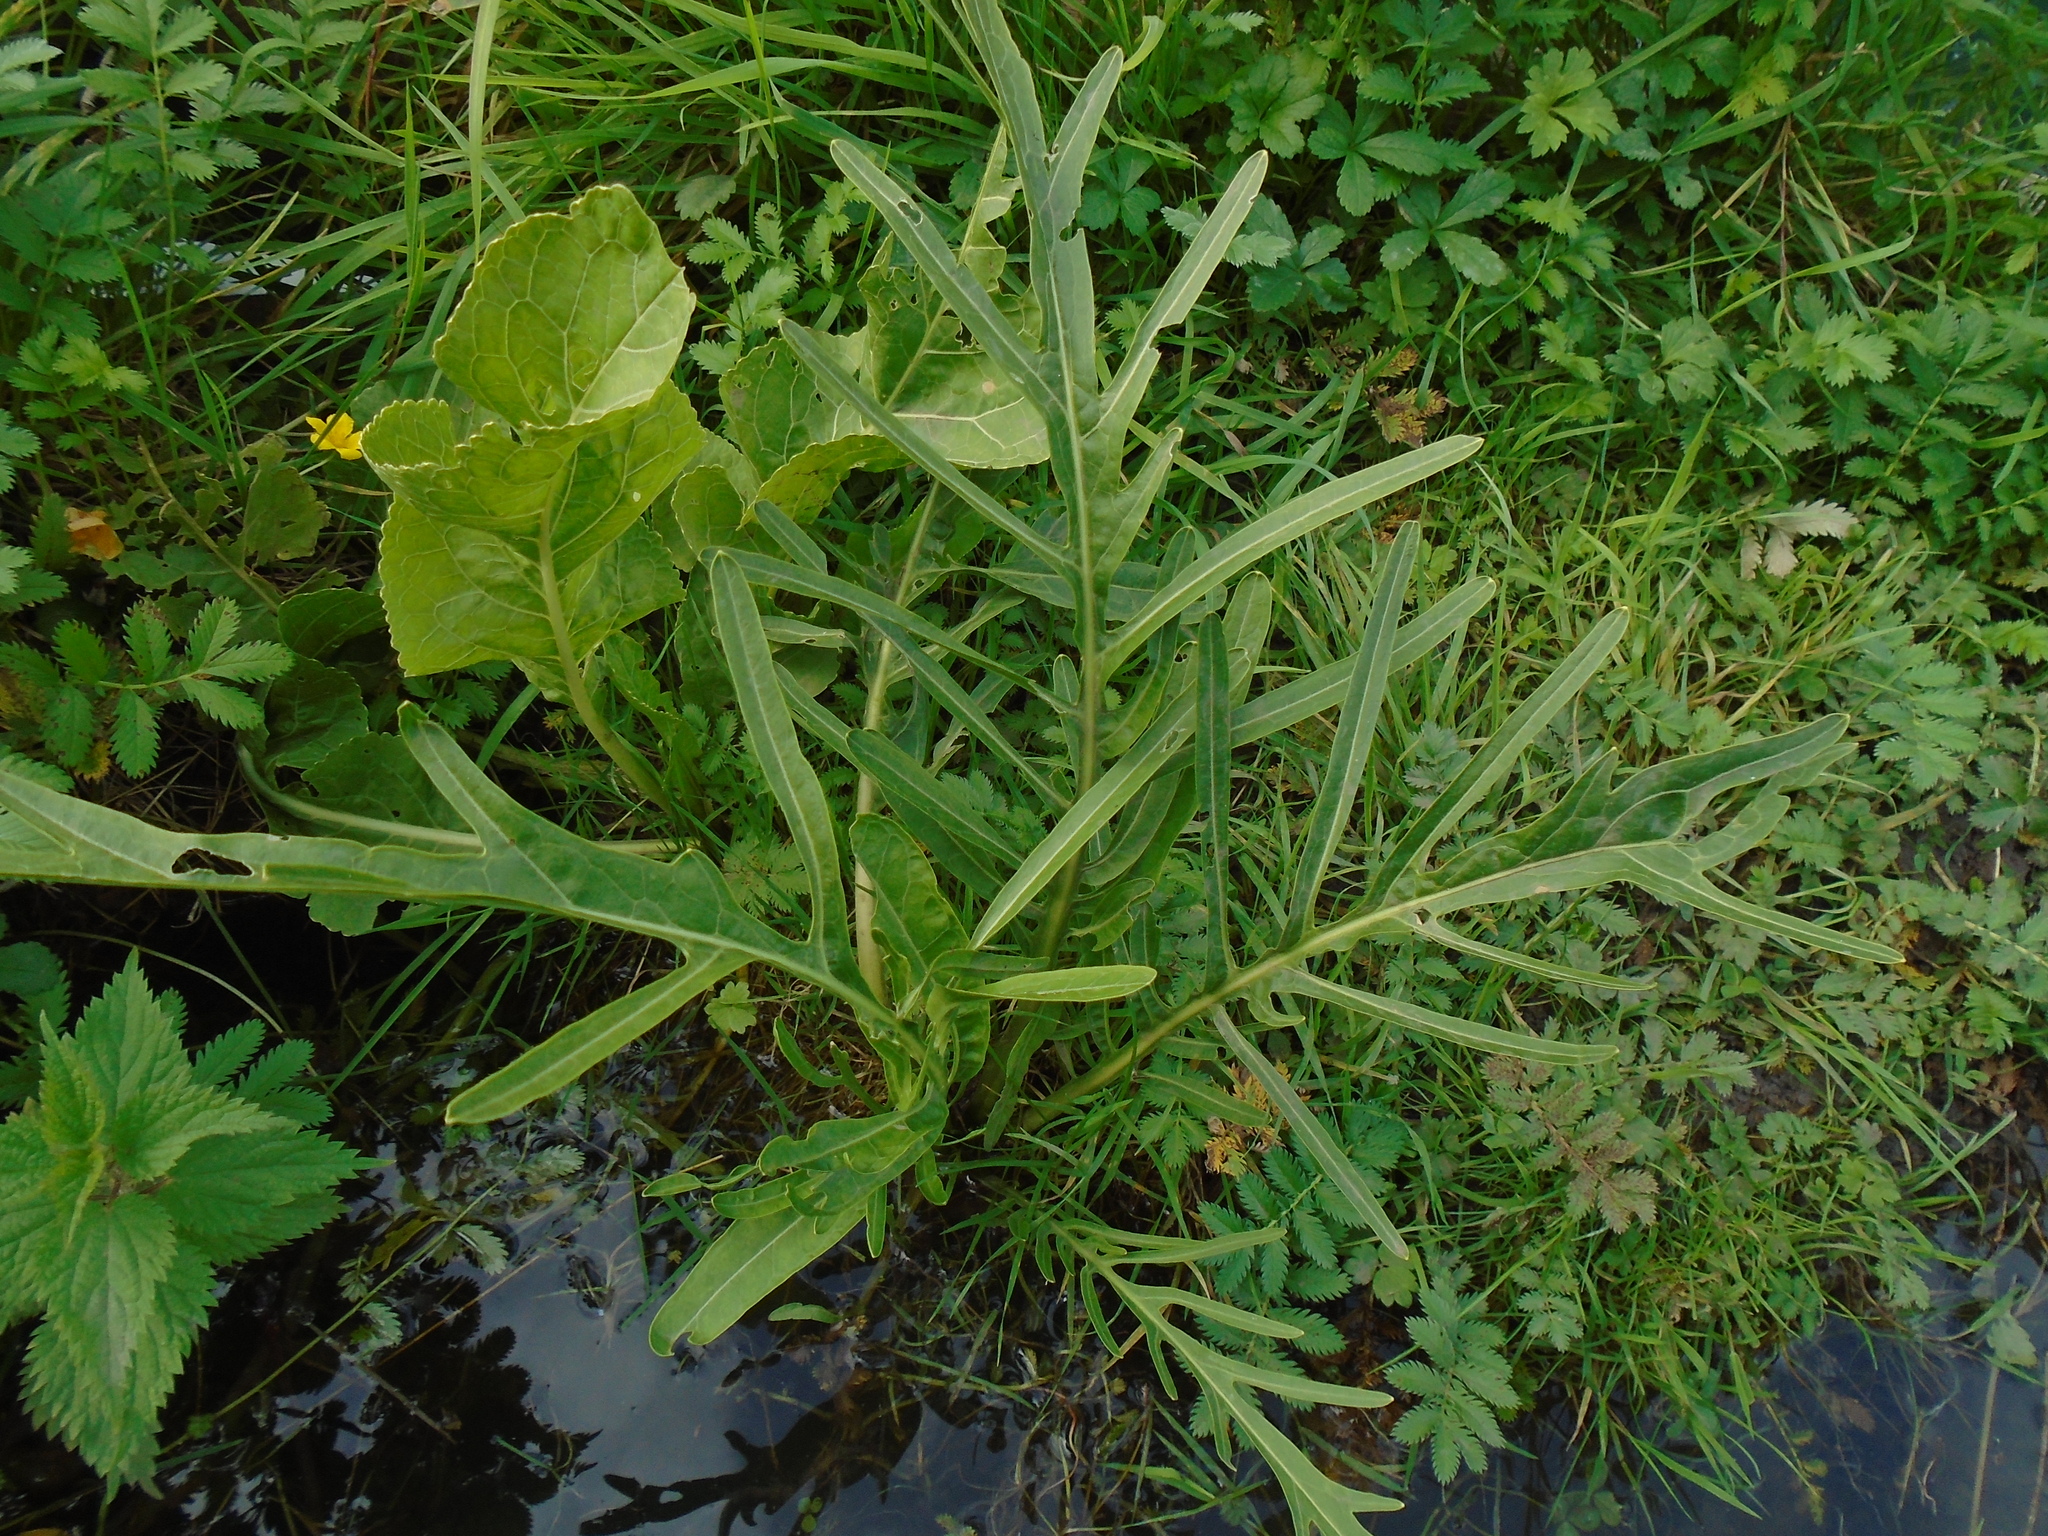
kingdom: Plantae
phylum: Tracheophyta
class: Magnoliopsida
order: Brassicales
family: Brassicaceae
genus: Armoracia
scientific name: Armoracia rusticana
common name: Horseradish
